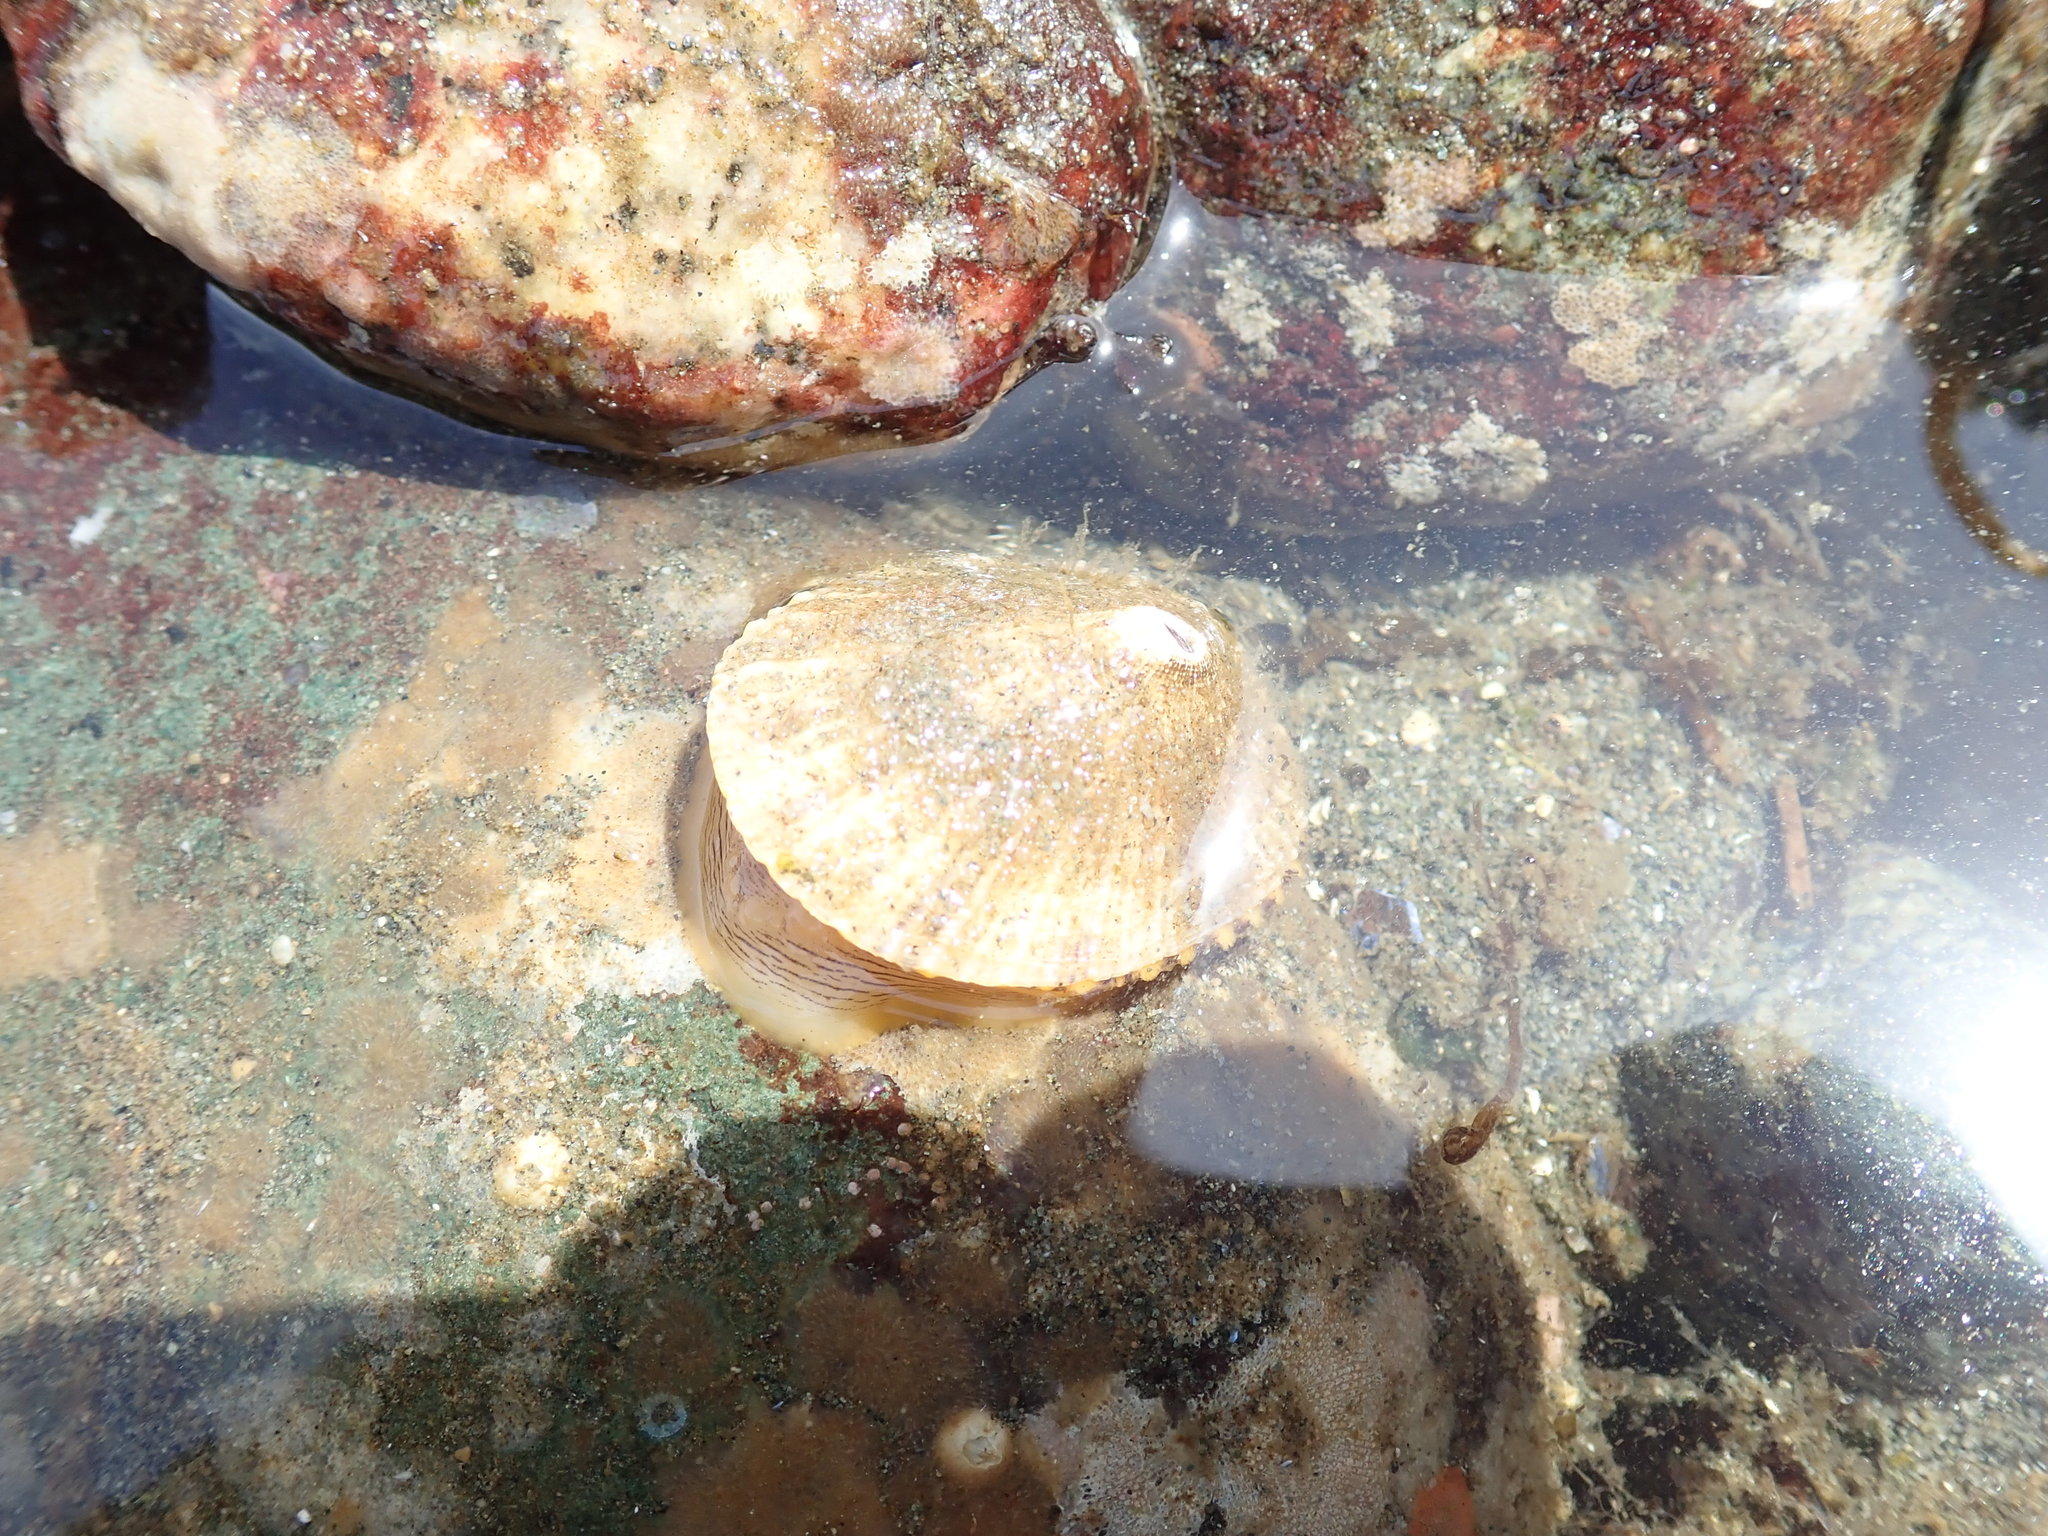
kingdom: Animalia
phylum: Mollusca
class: Gastropoda
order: Lepetellida
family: Fissurellidae
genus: Diodora
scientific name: Diodora aspera
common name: Rough keyhole limpet
